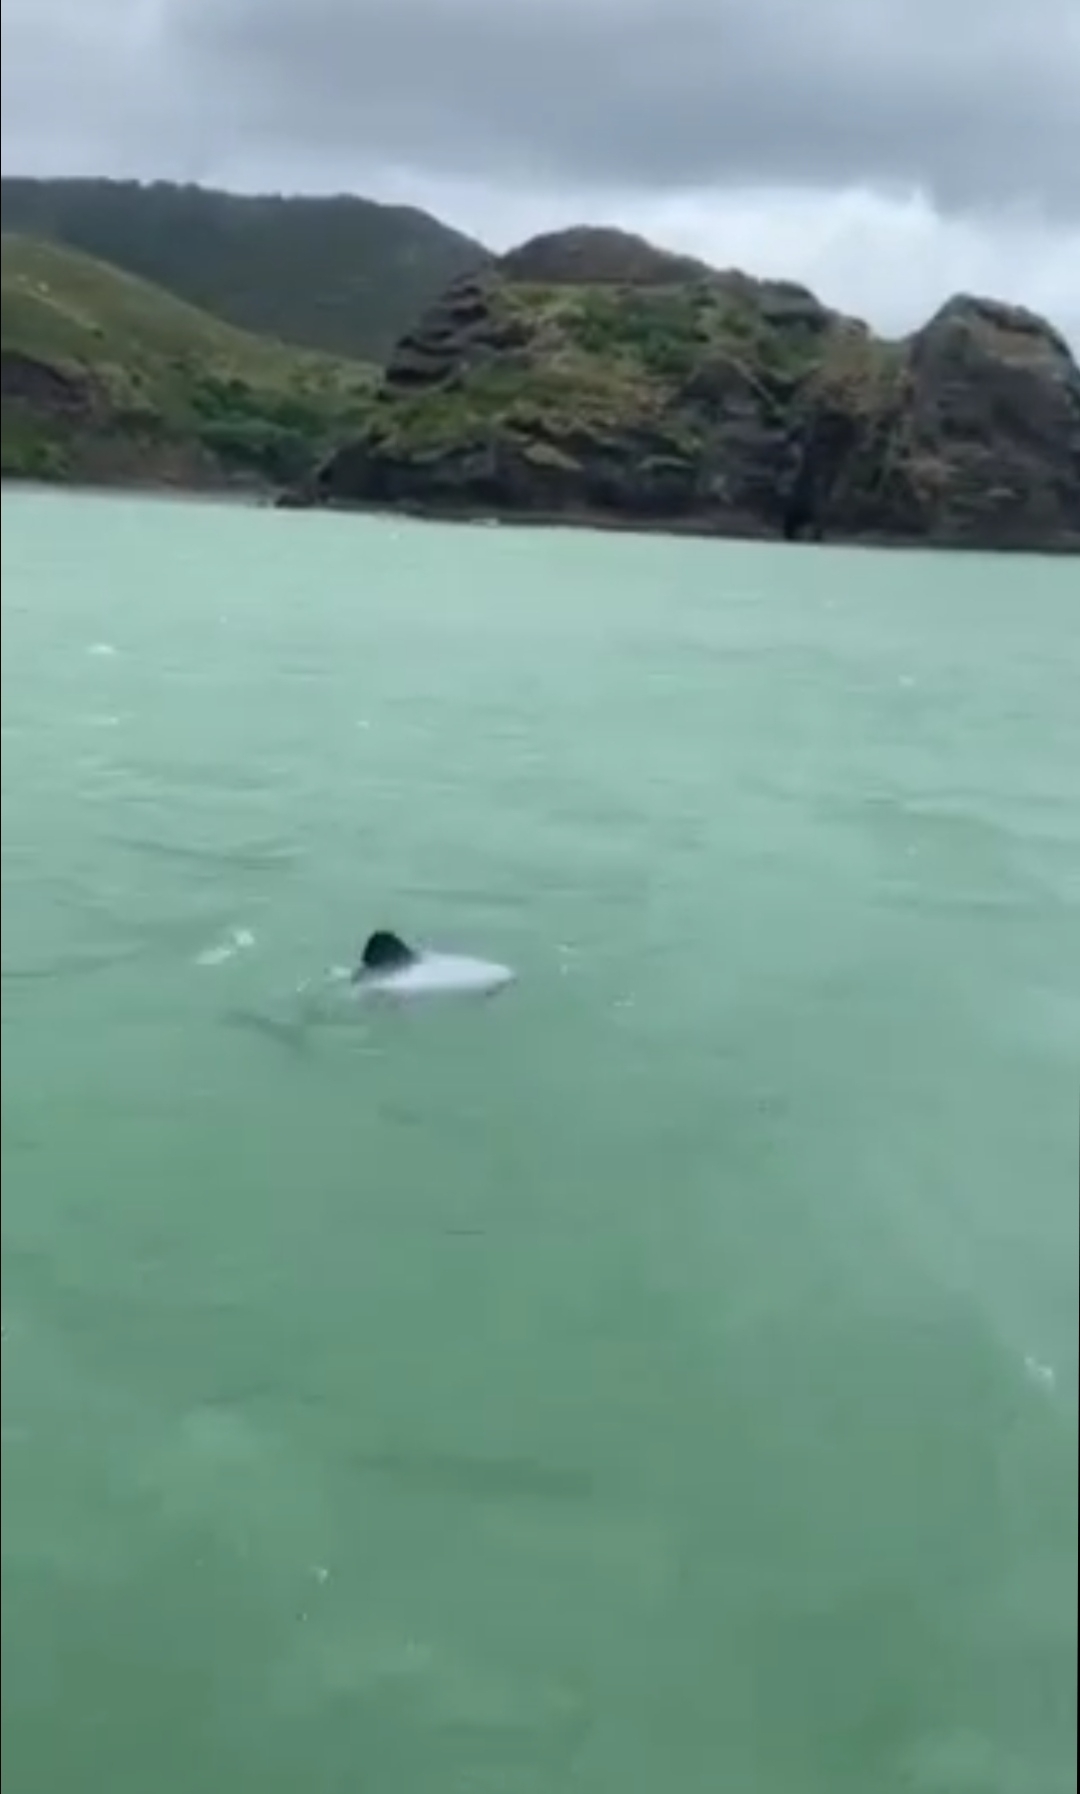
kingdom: Animalia
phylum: Chordata
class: Mammalia
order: Cetacea
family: Delphinidae
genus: Cephalorhynchus
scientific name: Cephalorhynchus hectori
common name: Hector's dolphin
